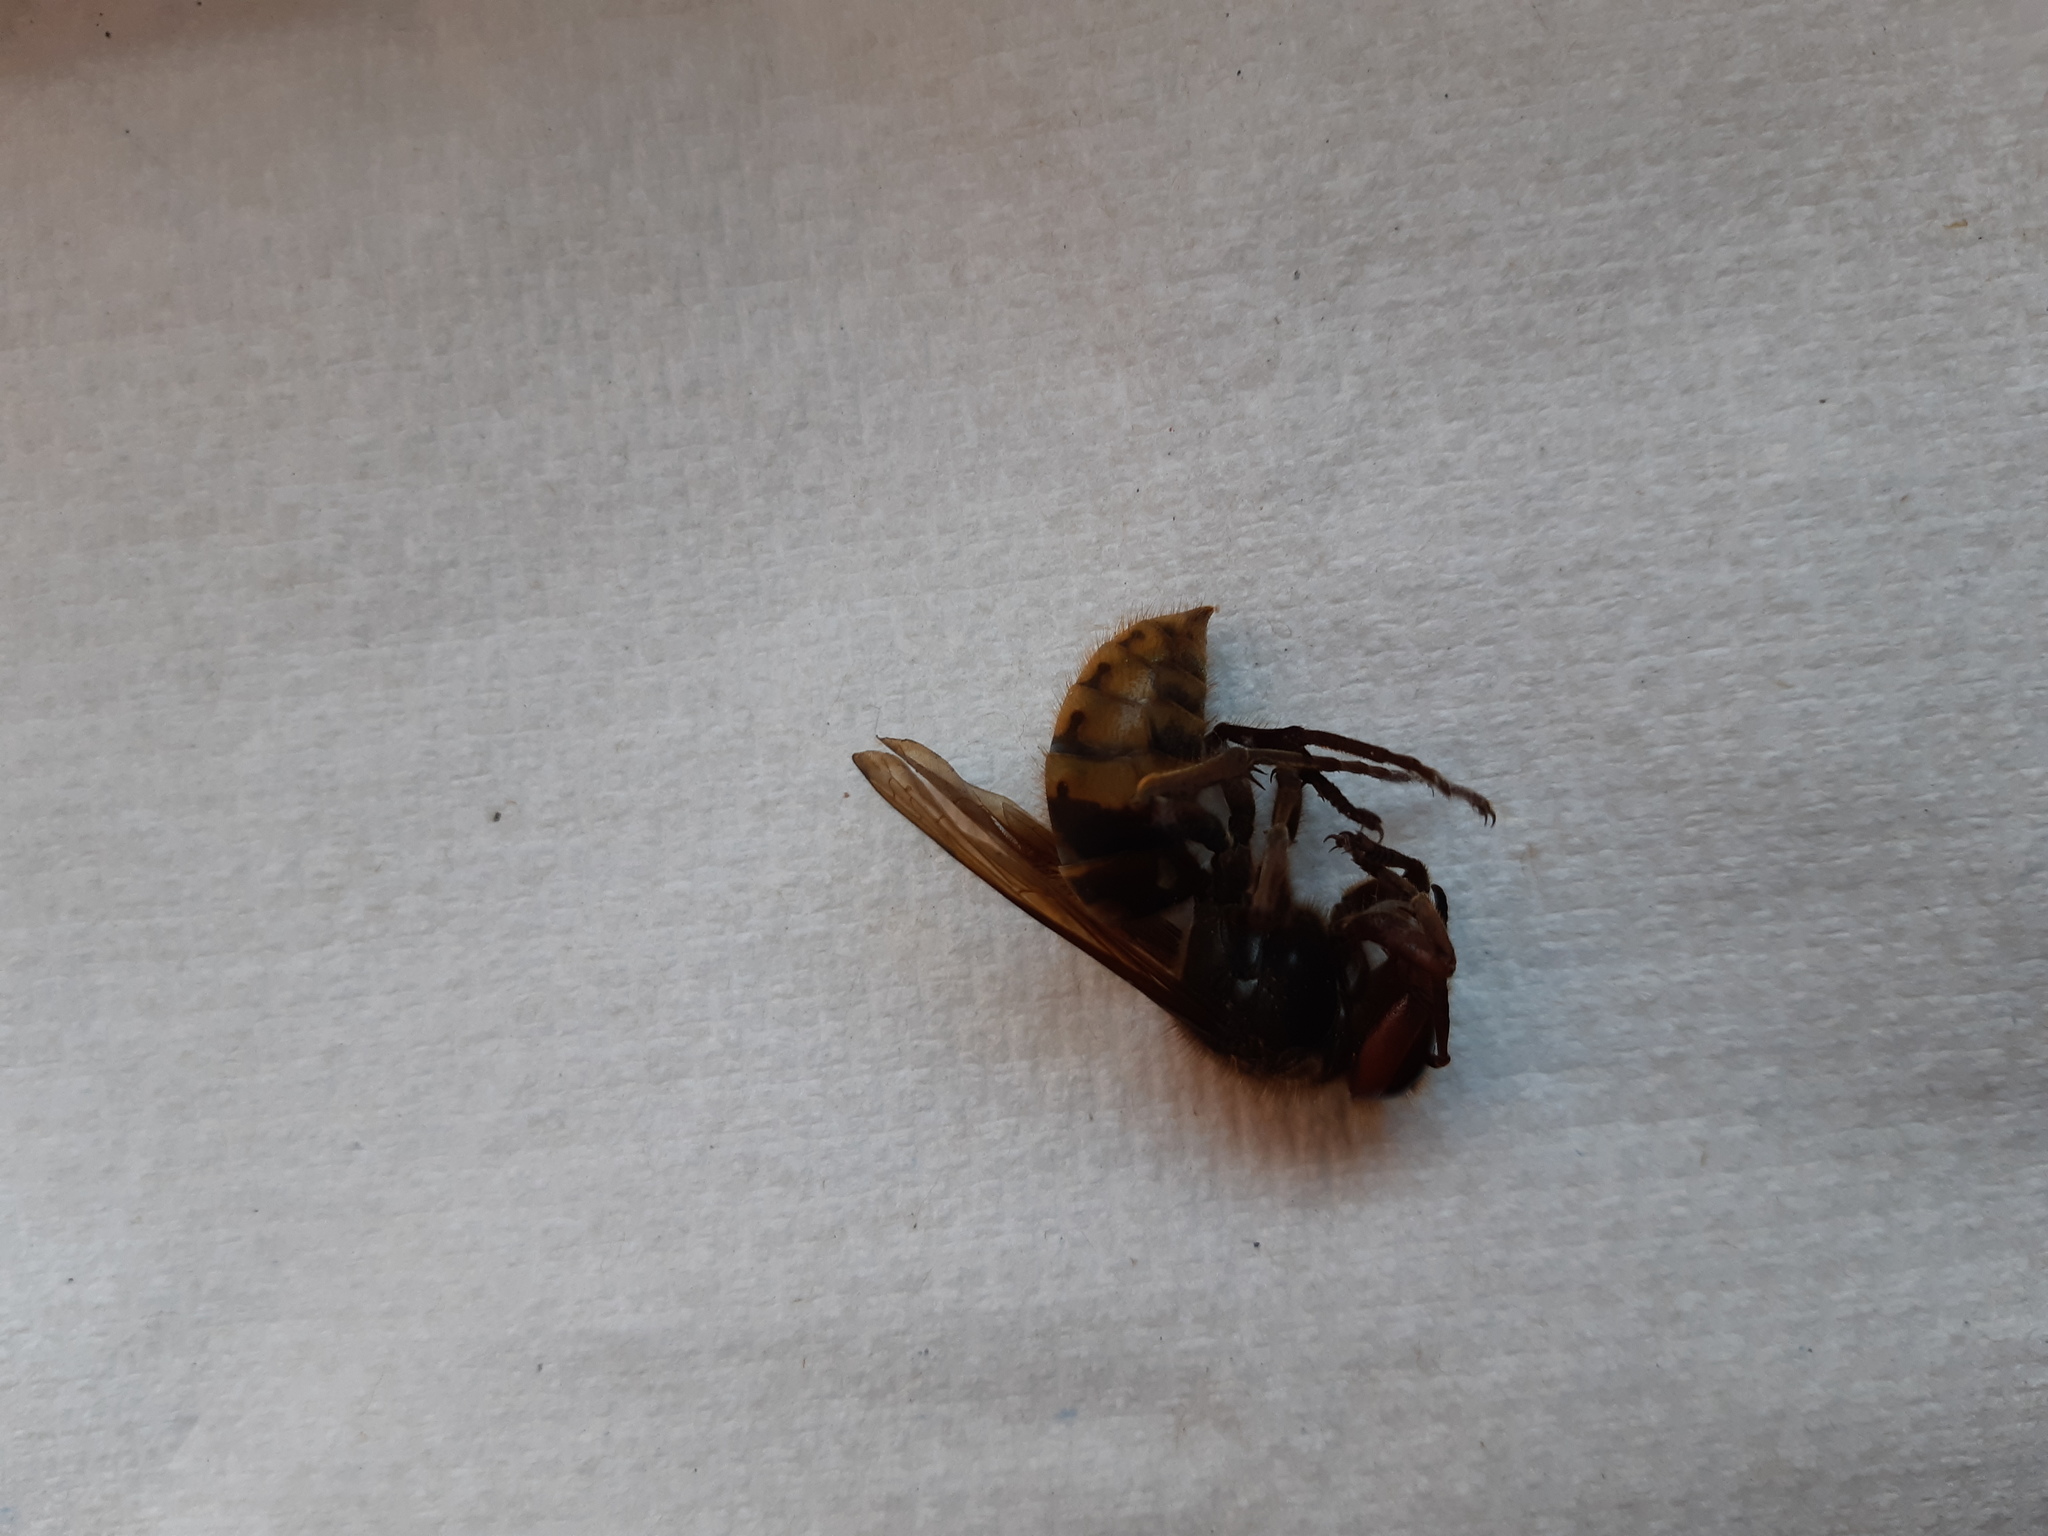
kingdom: Animalia
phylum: Arthropoda
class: Insecta
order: Hymenoptera
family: Vespidae
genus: Vespa
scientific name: Vespa crabro
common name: Hornet
